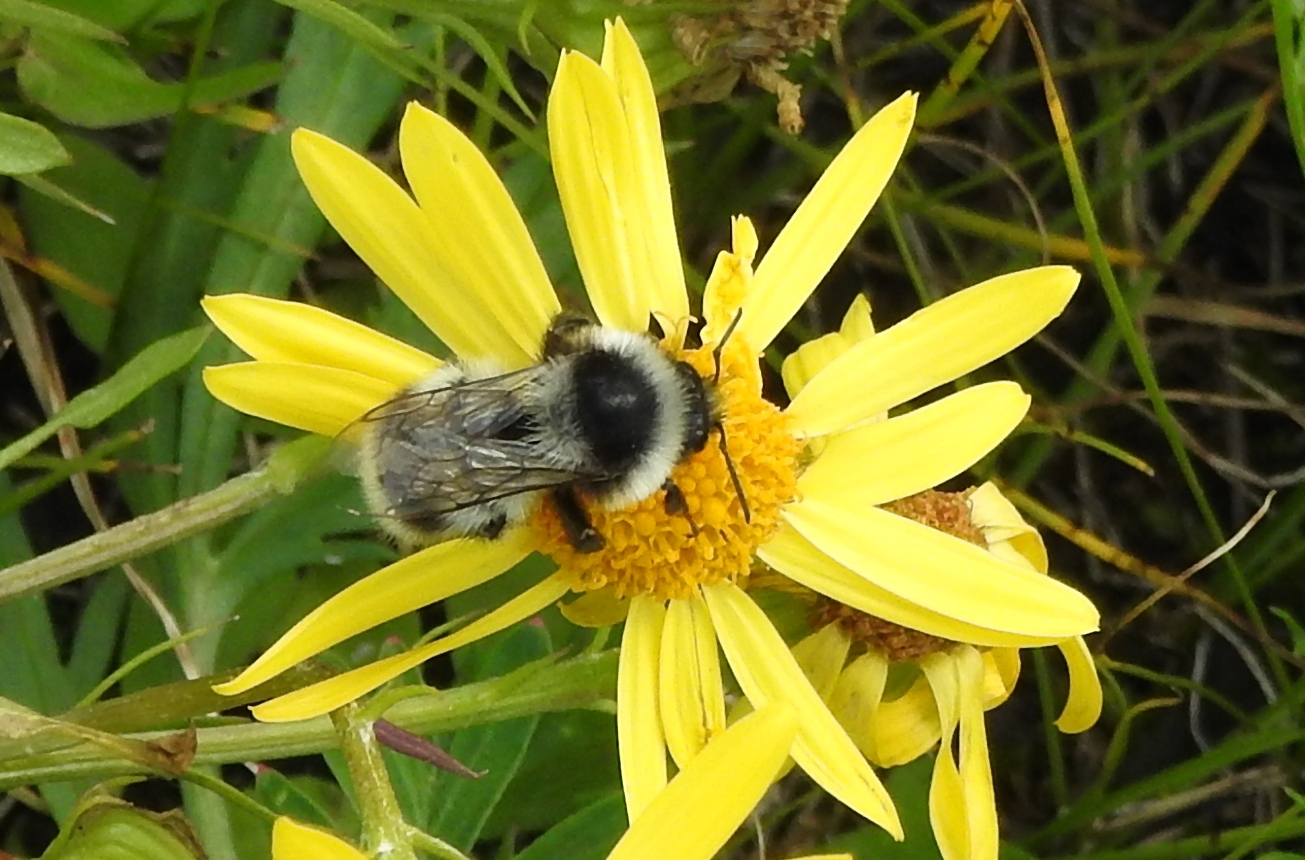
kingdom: Animalia
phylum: Arthropoda
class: Insecta
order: Hymenoptera
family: Apidae
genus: Bombus
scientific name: Bombus sichelii
